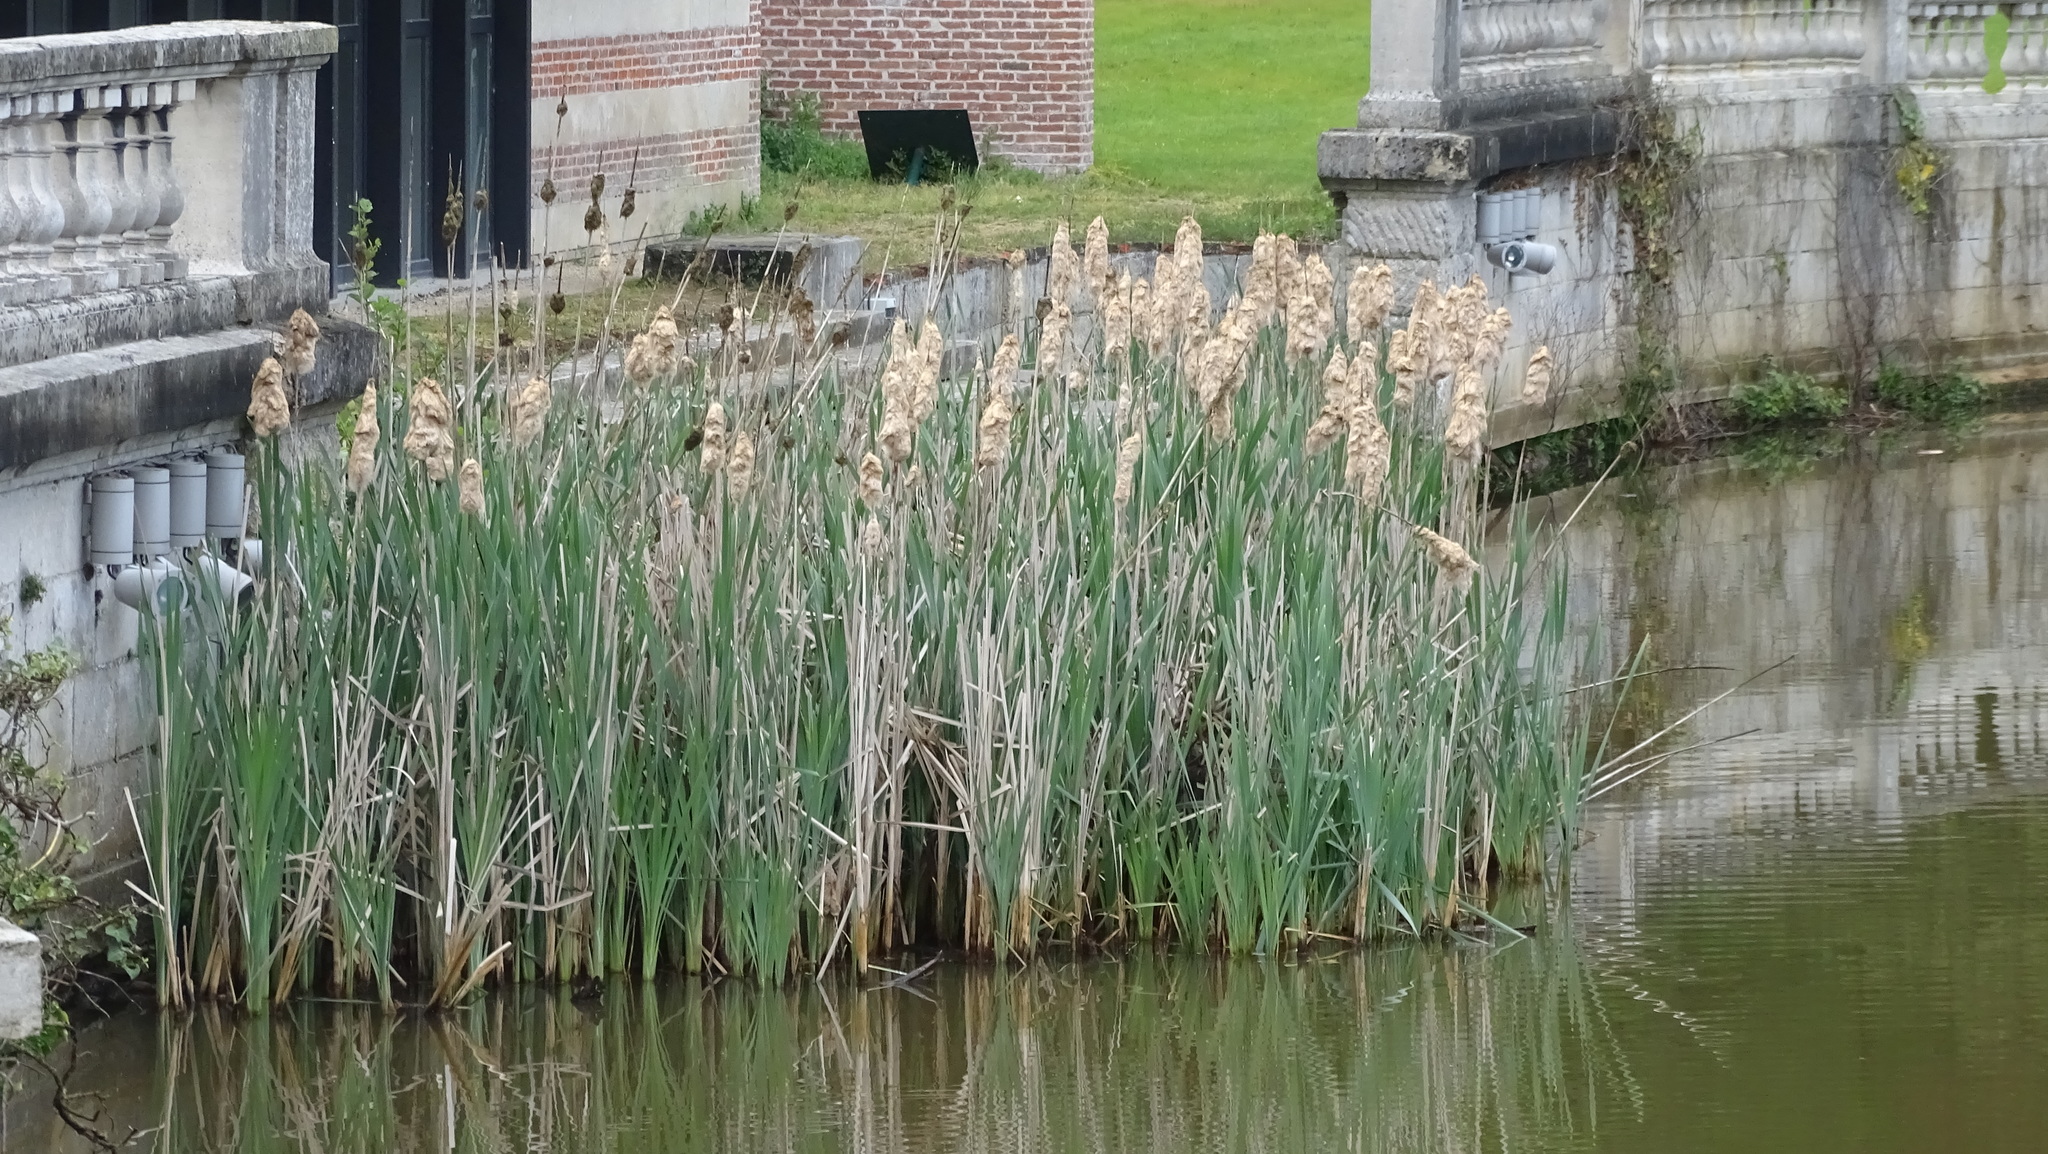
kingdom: Plantae
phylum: Tracheophyta
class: Liliopsida
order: Poales
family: Typhaceae
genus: Typha
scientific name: Typha latifolia
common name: Broadleaf cattail
